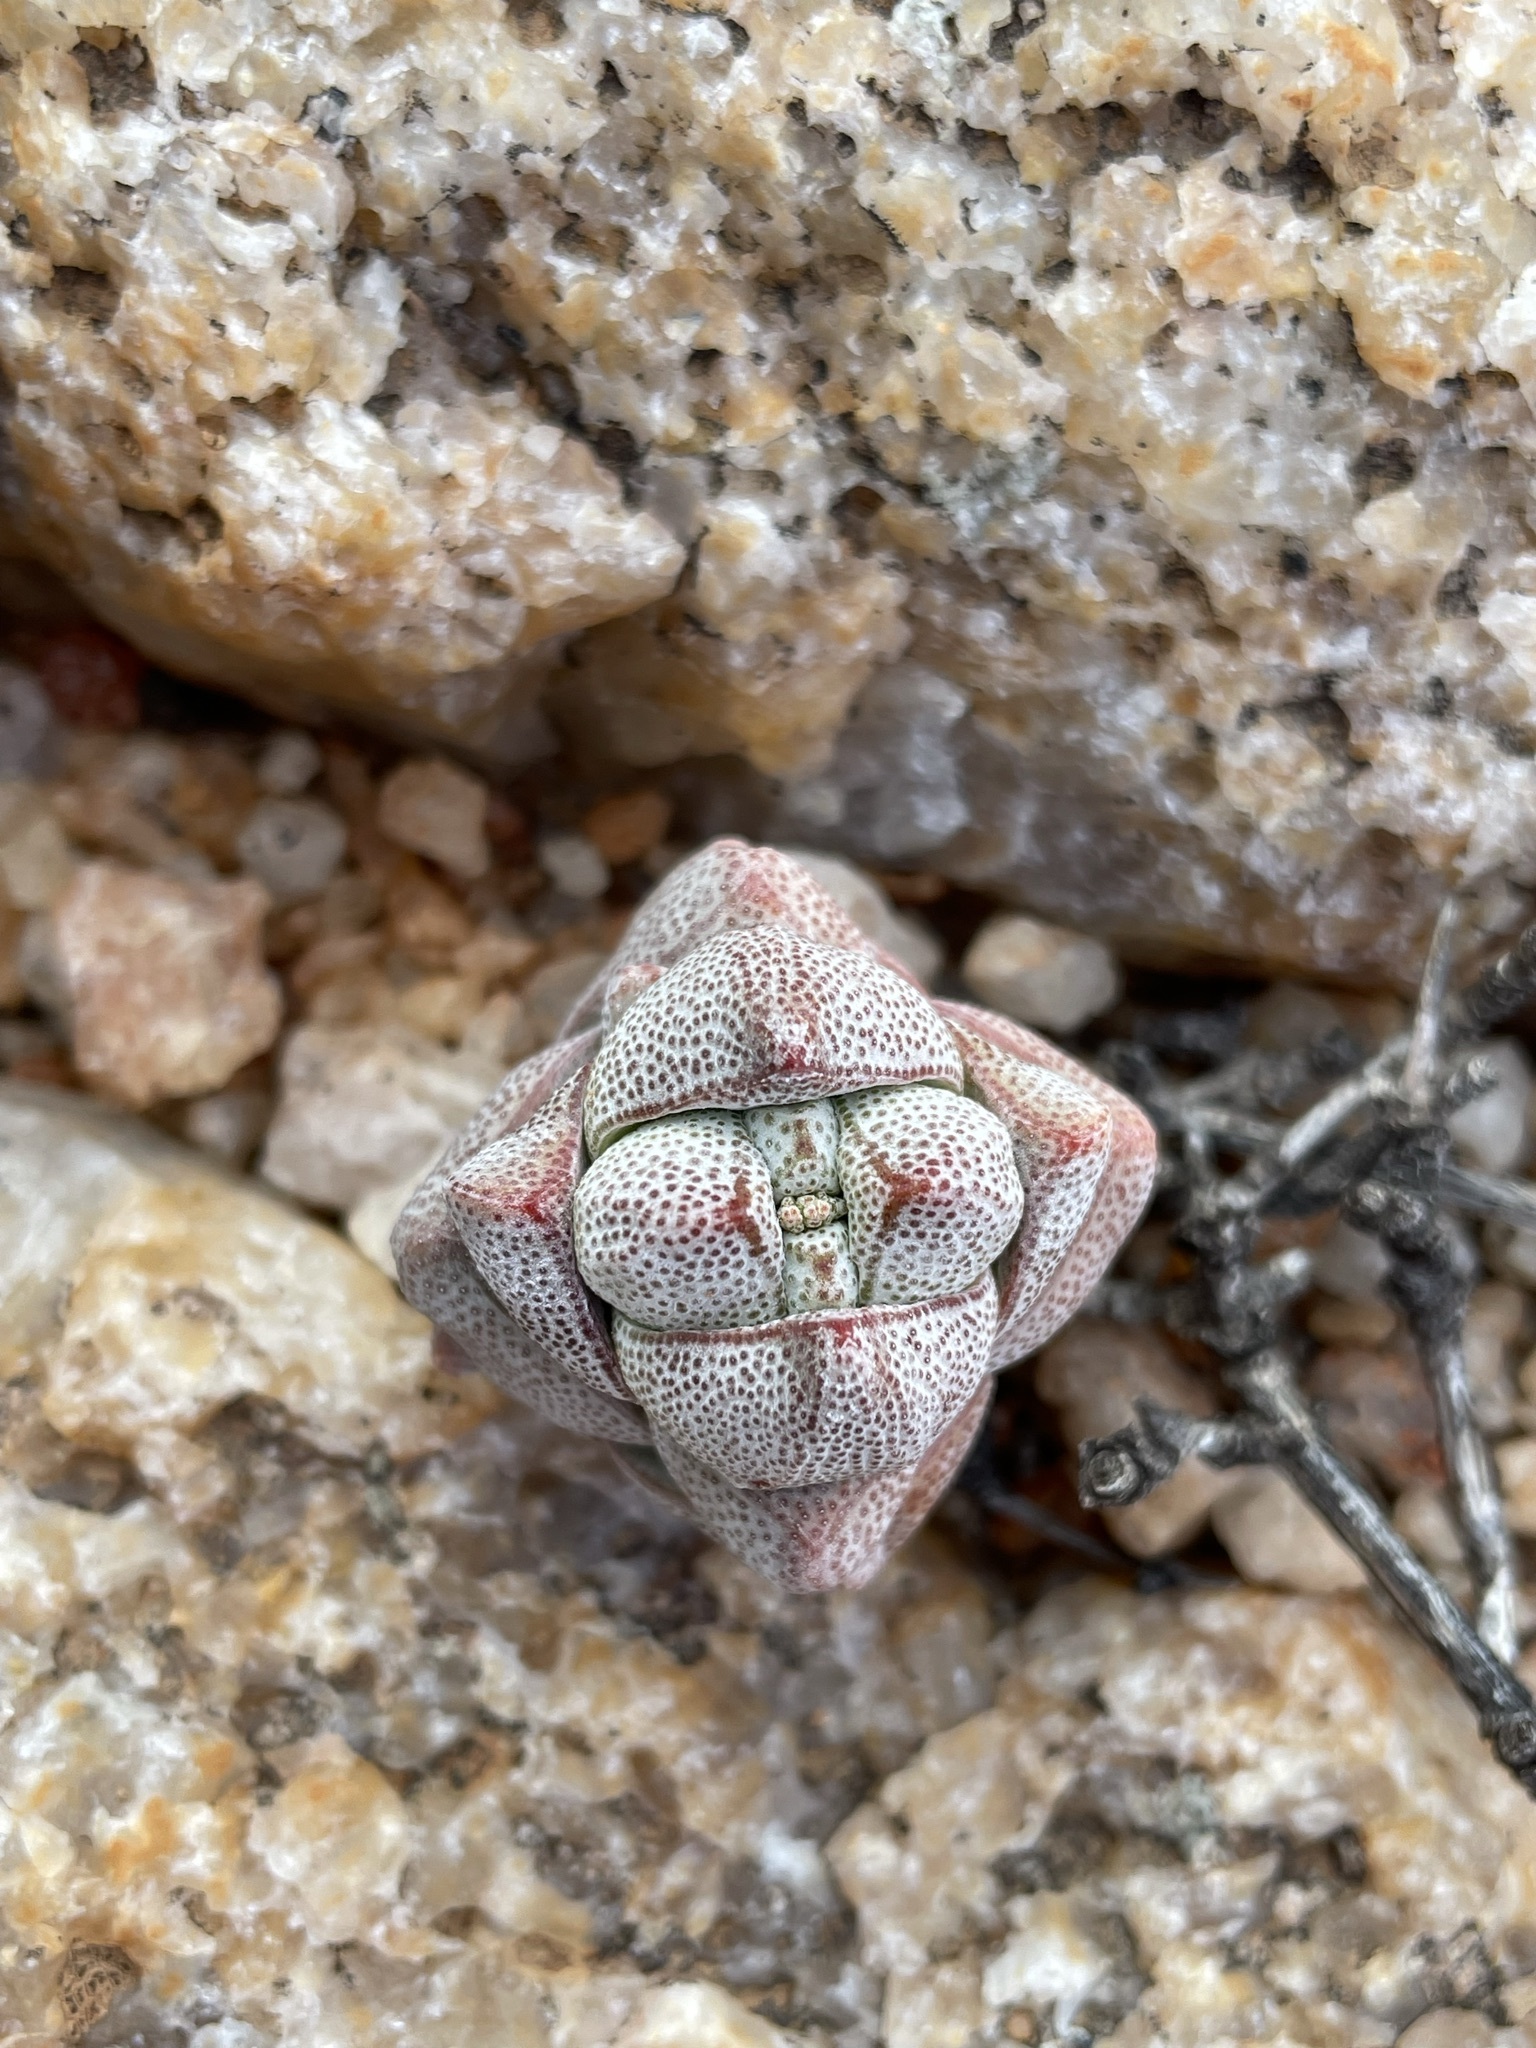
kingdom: Plantae
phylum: Tracheophyta
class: Magnoliopsida
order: Saxifragales
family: Crassulaceae
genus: Crassula
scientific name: Crassula deceptor
